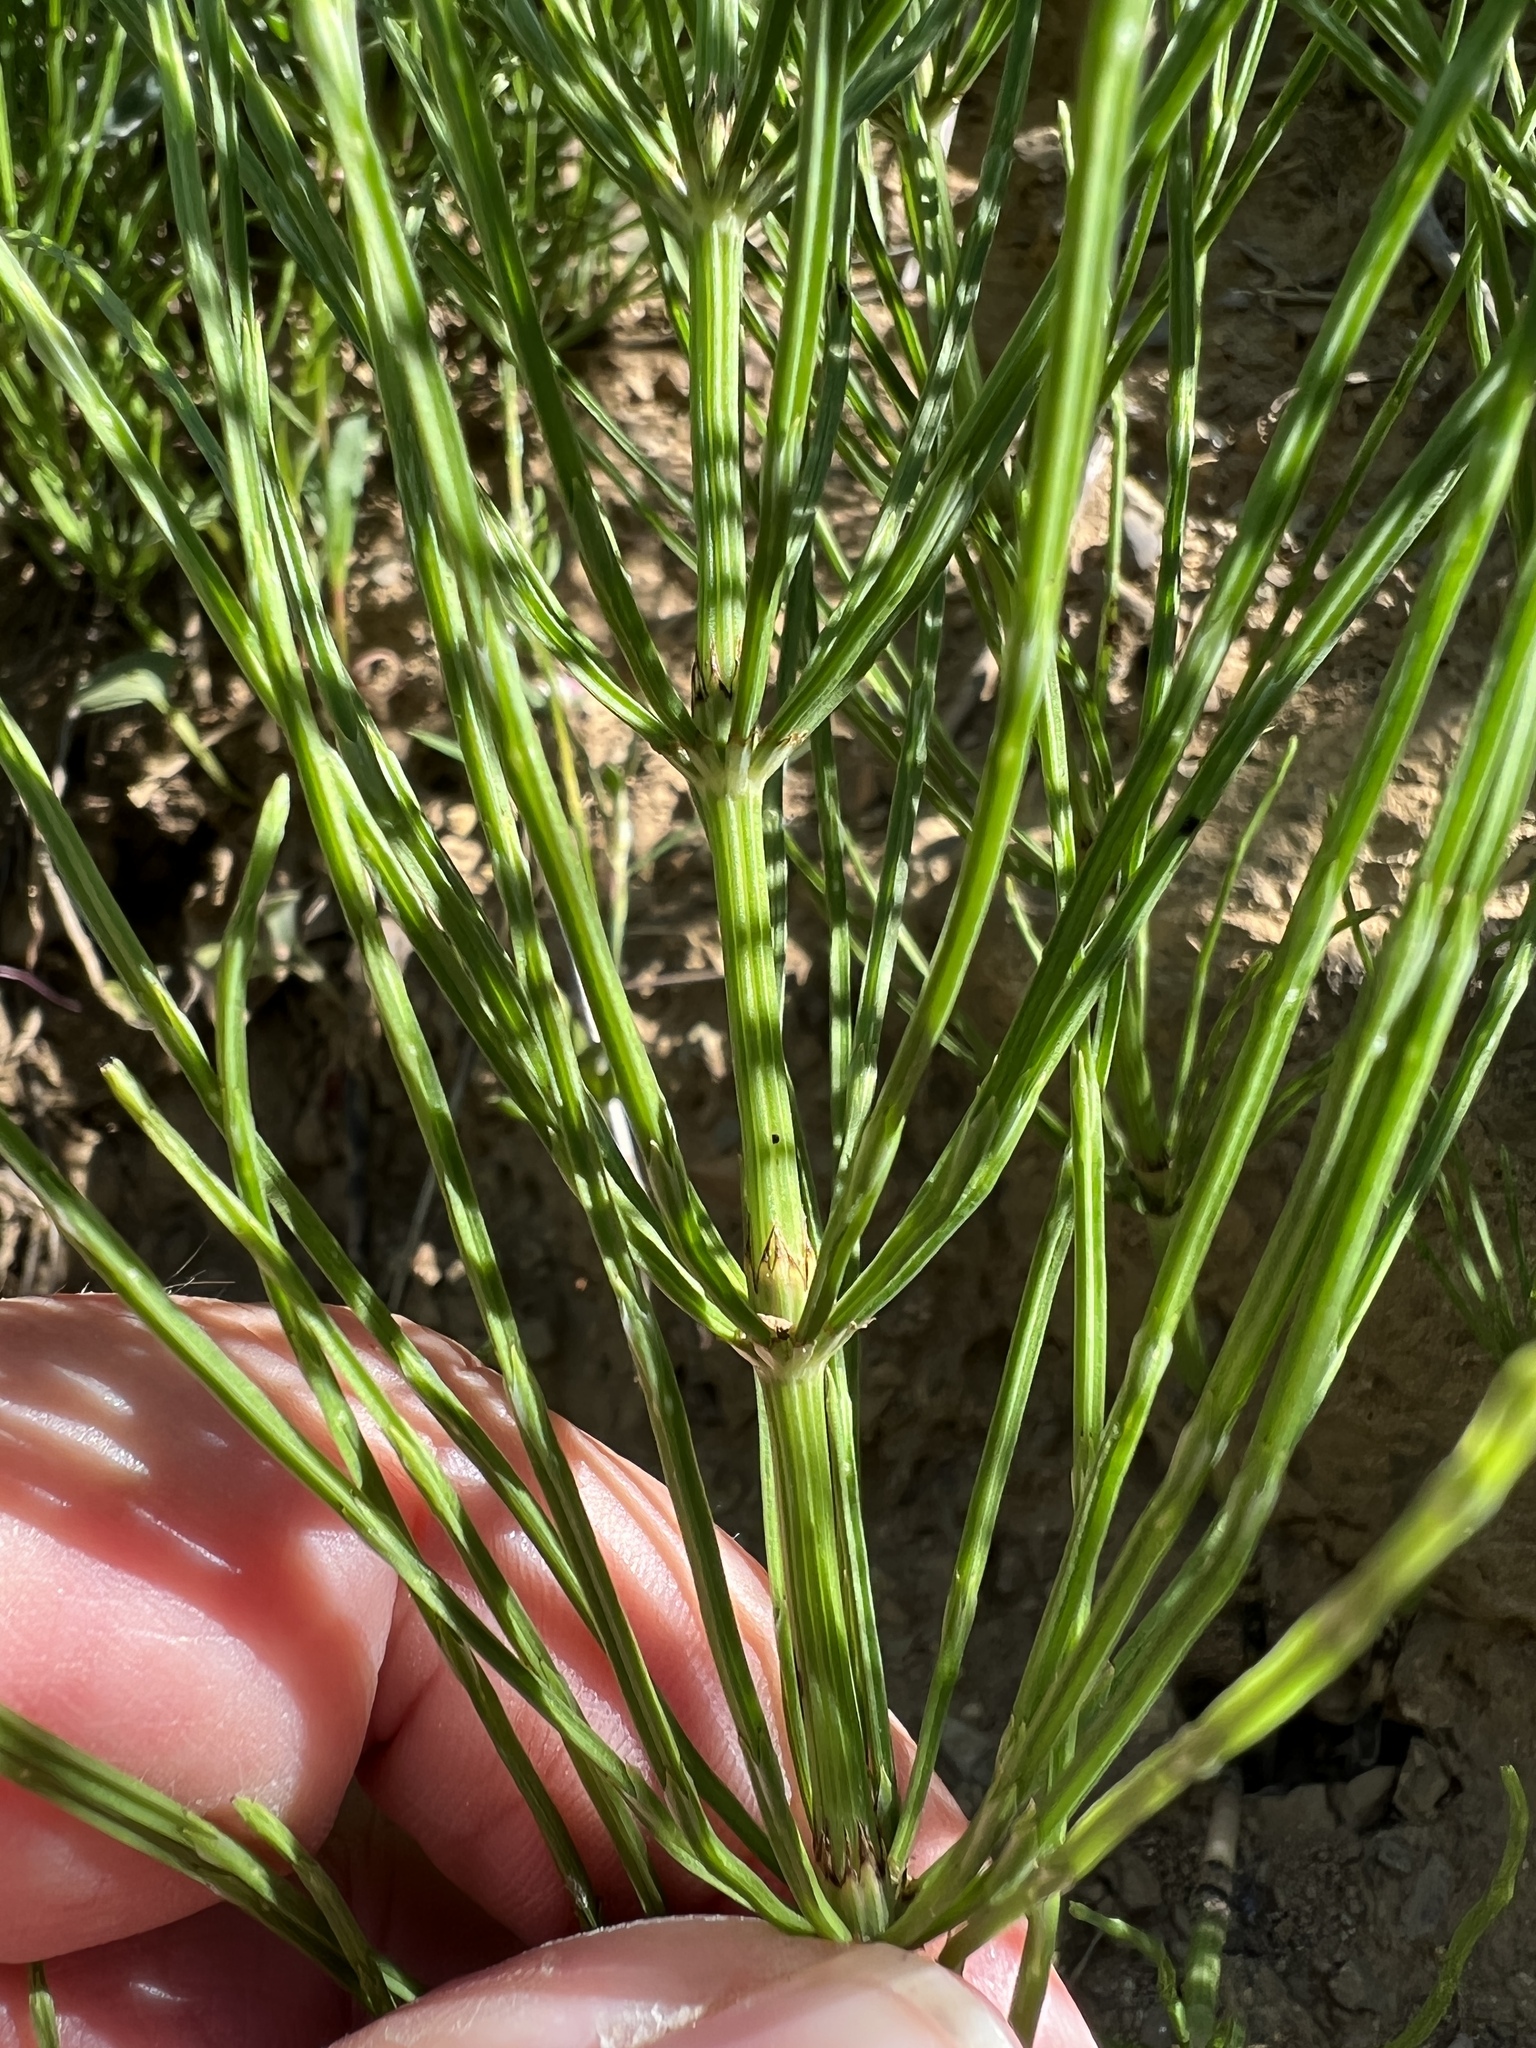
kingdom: Plantae
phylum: Tracheophyta
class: Polypodiopsida
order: Equisetales
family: Equisetaceae
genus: Equisetum
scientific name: Equisetum arvense
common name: Field horsetail
